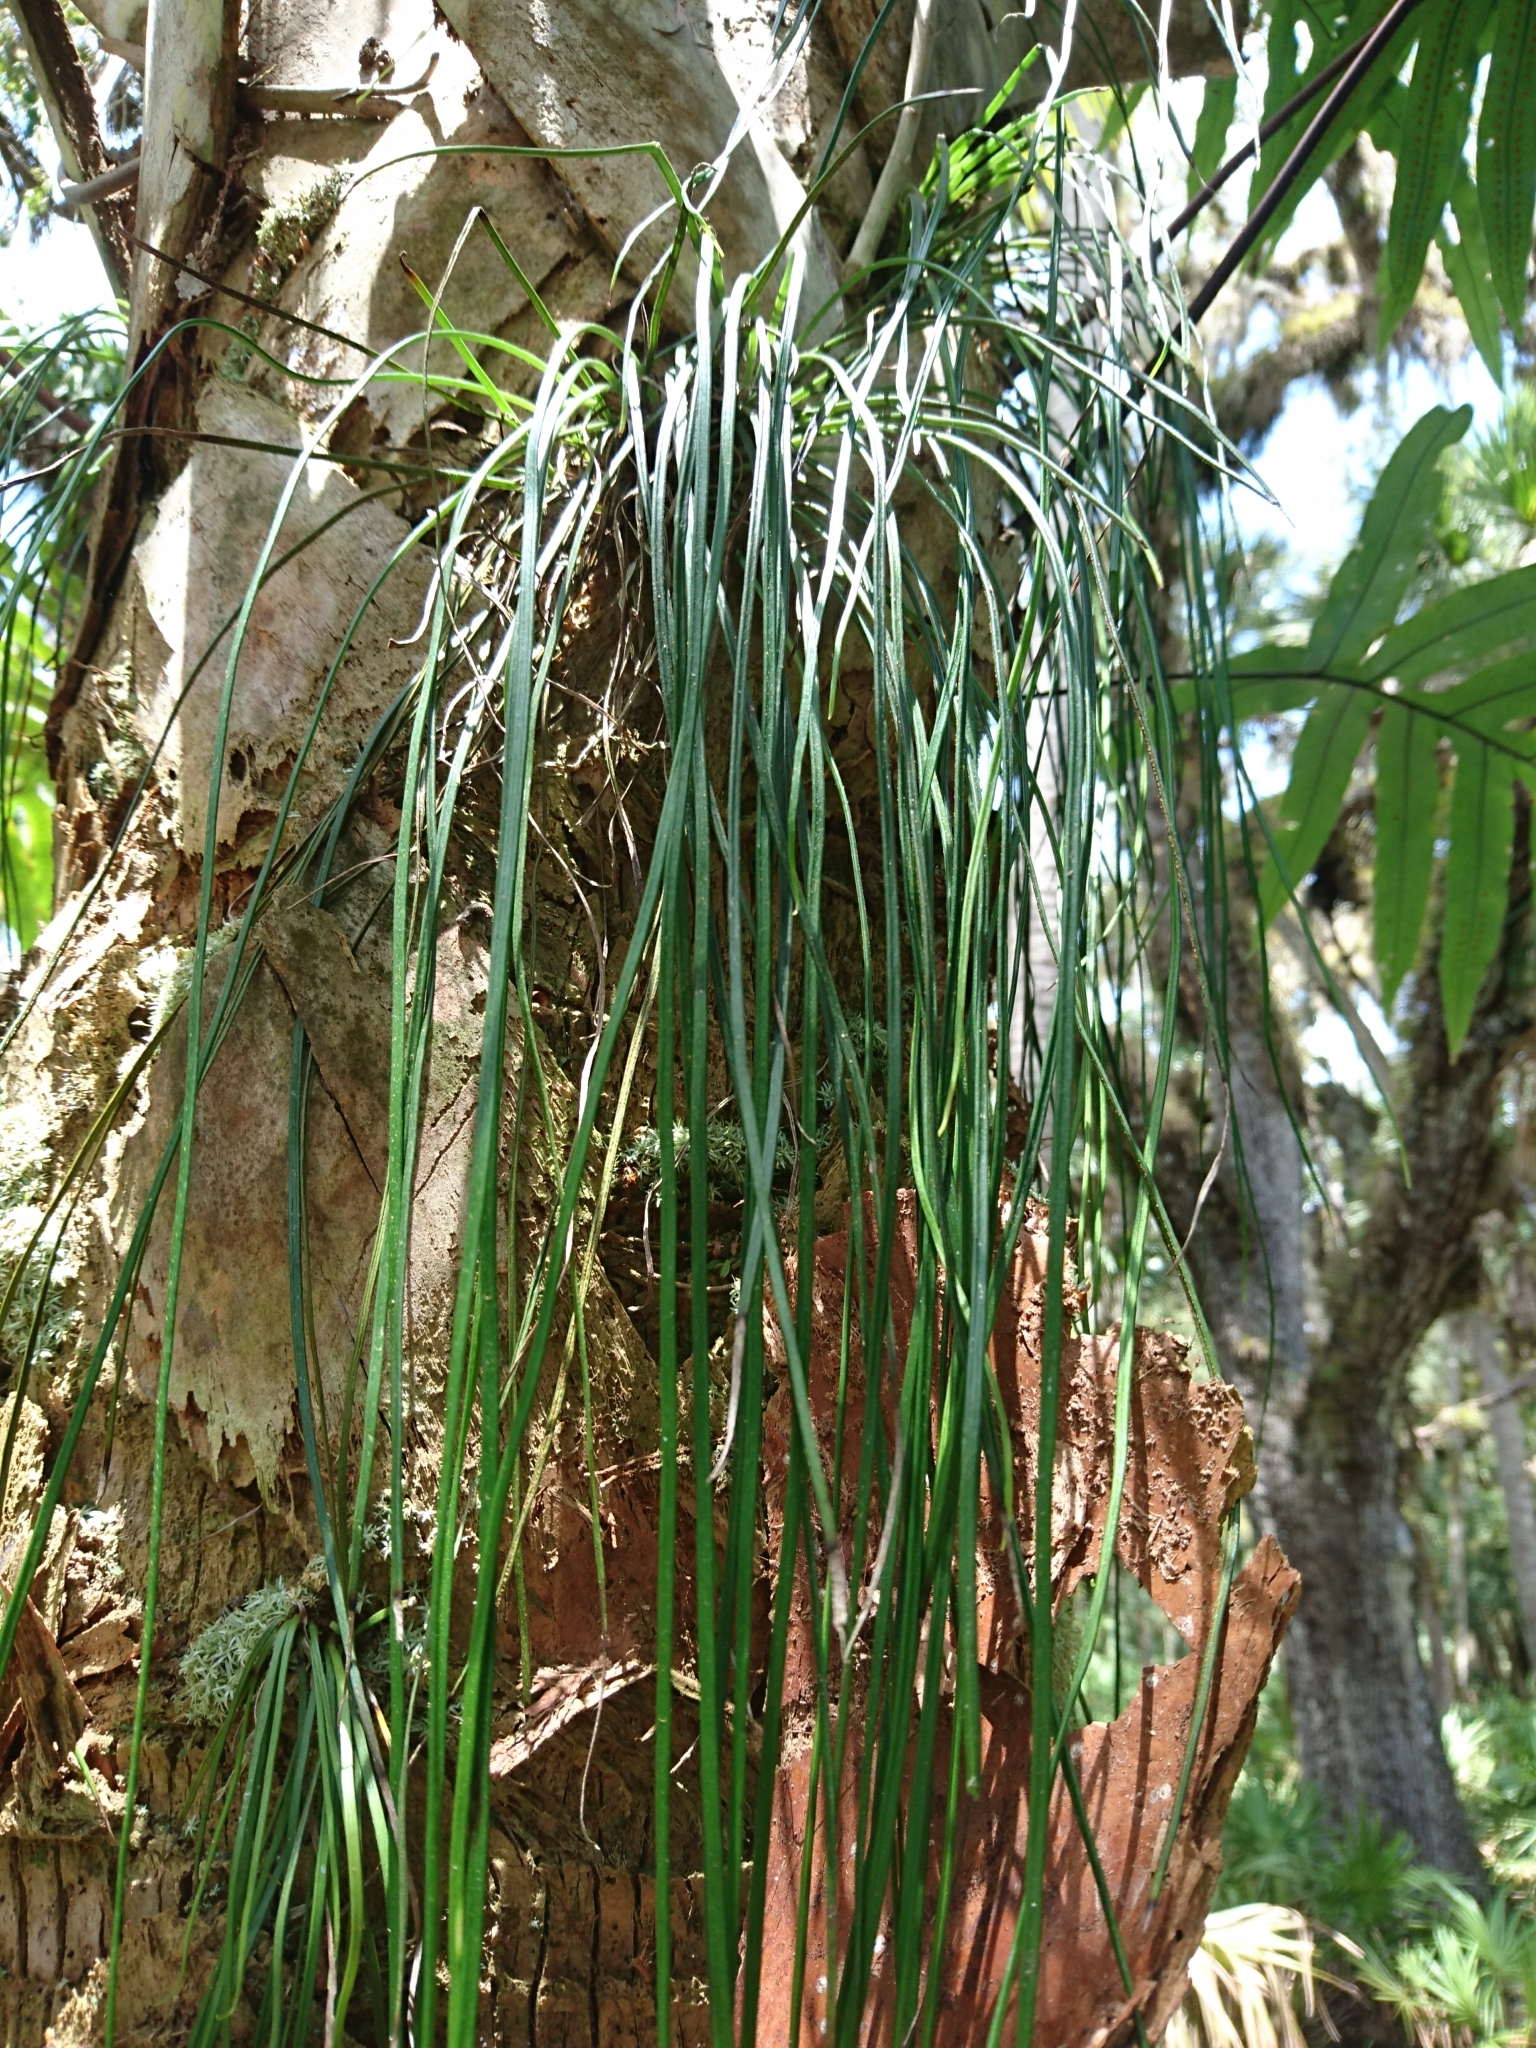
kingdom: Plantae
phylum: Tracheophyta
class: Polypodiopsida
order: Polypodiales
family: Pteridaceae
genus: Vittaria
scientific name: Vittaria lineata
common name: Shoestring fern
